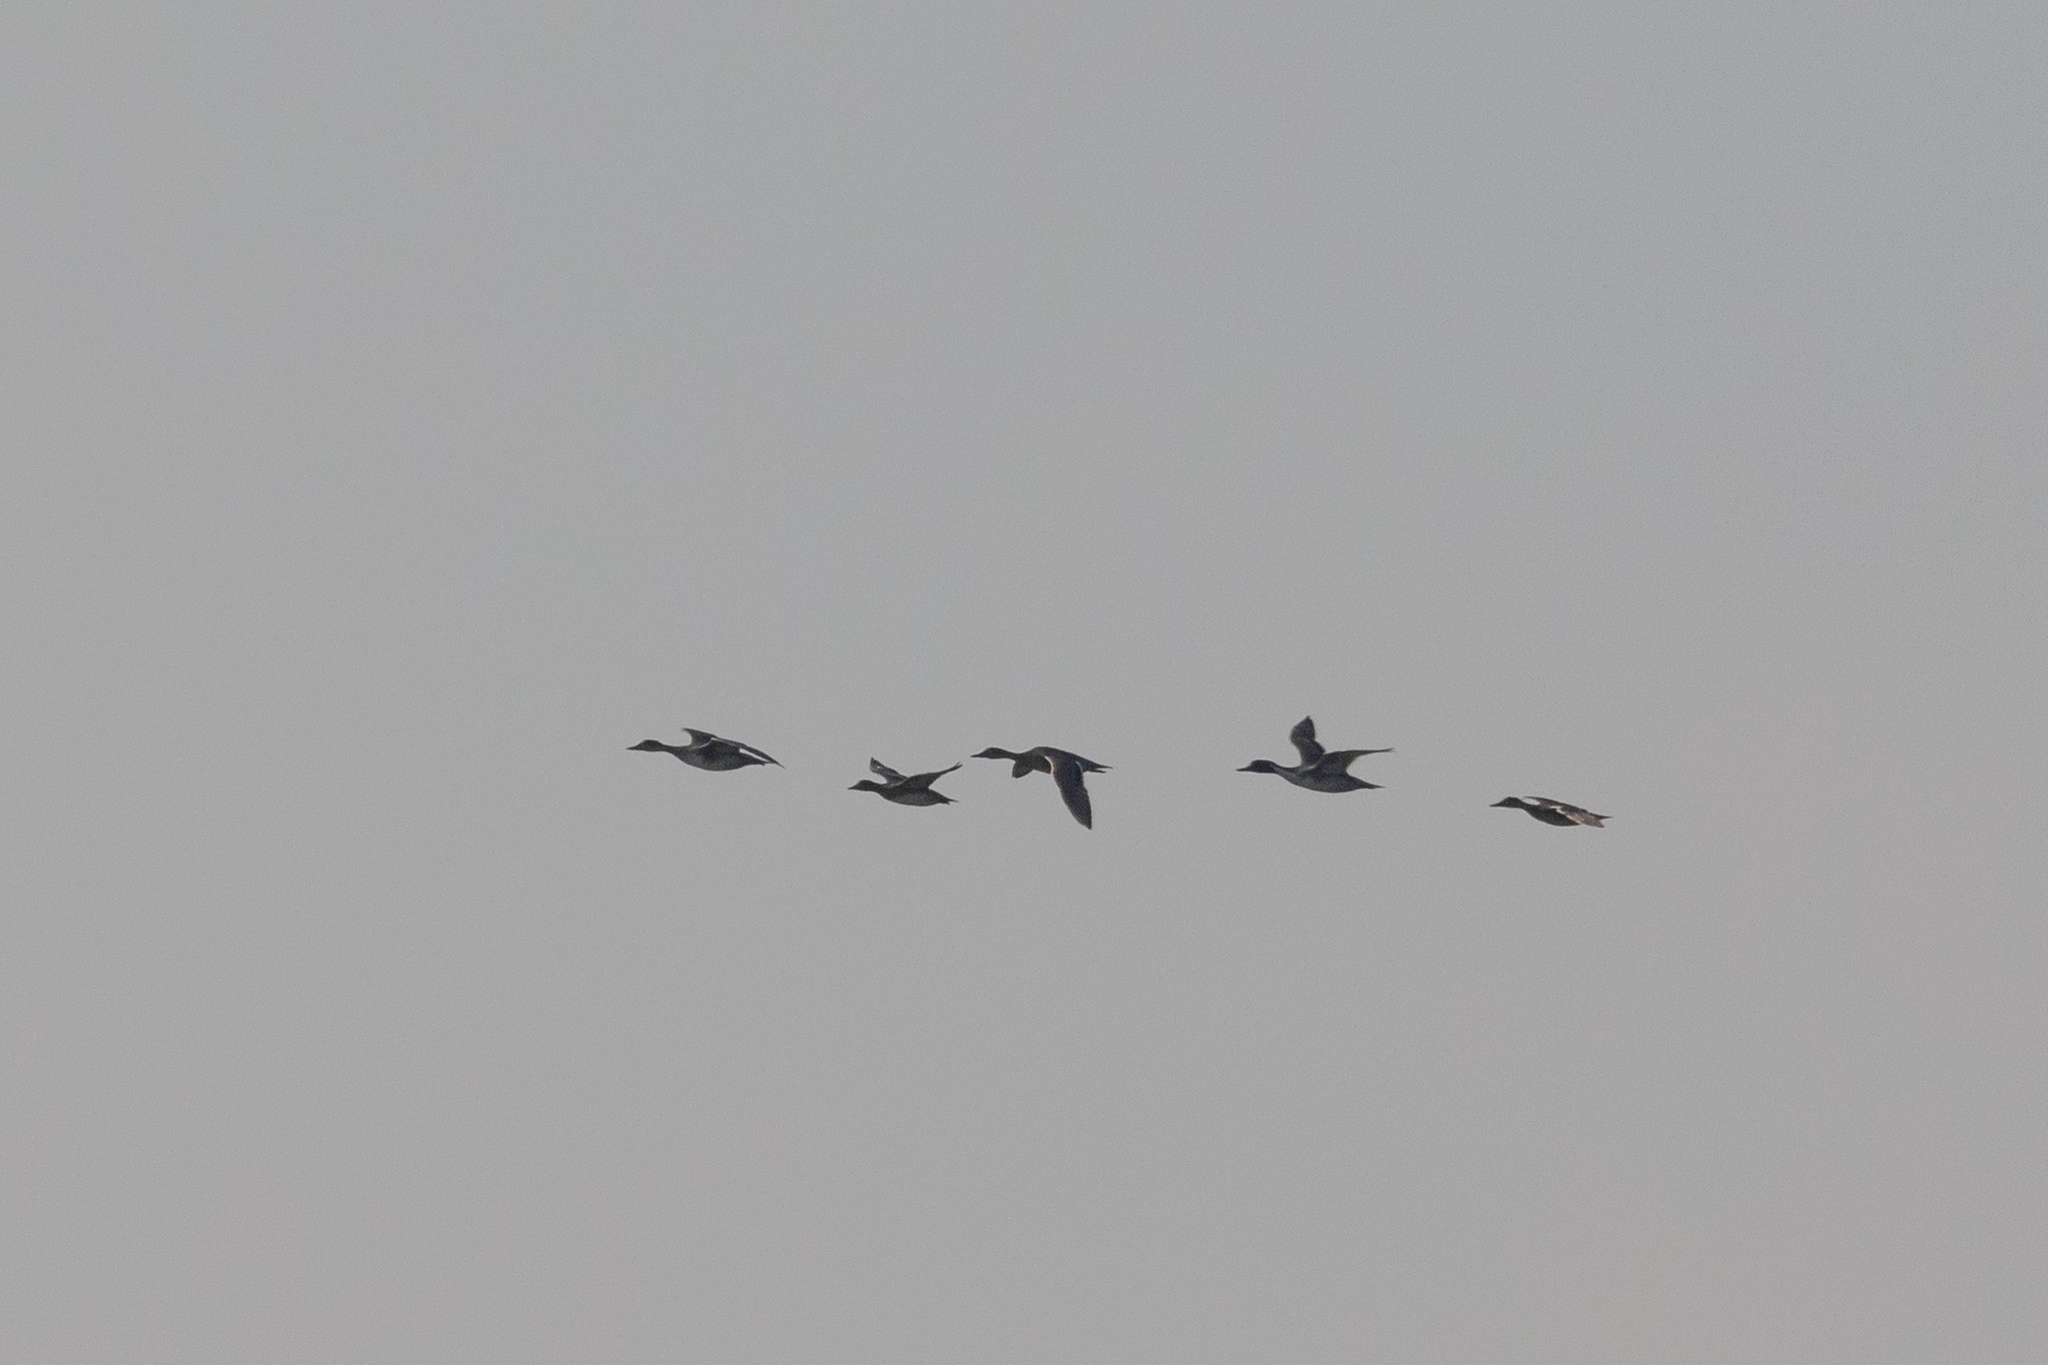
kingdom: Animalia
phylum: Chordata
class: Aves
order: Anseriformes
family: Anatidae
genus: Anas
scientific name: Anas acuta
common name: Northern pintail
